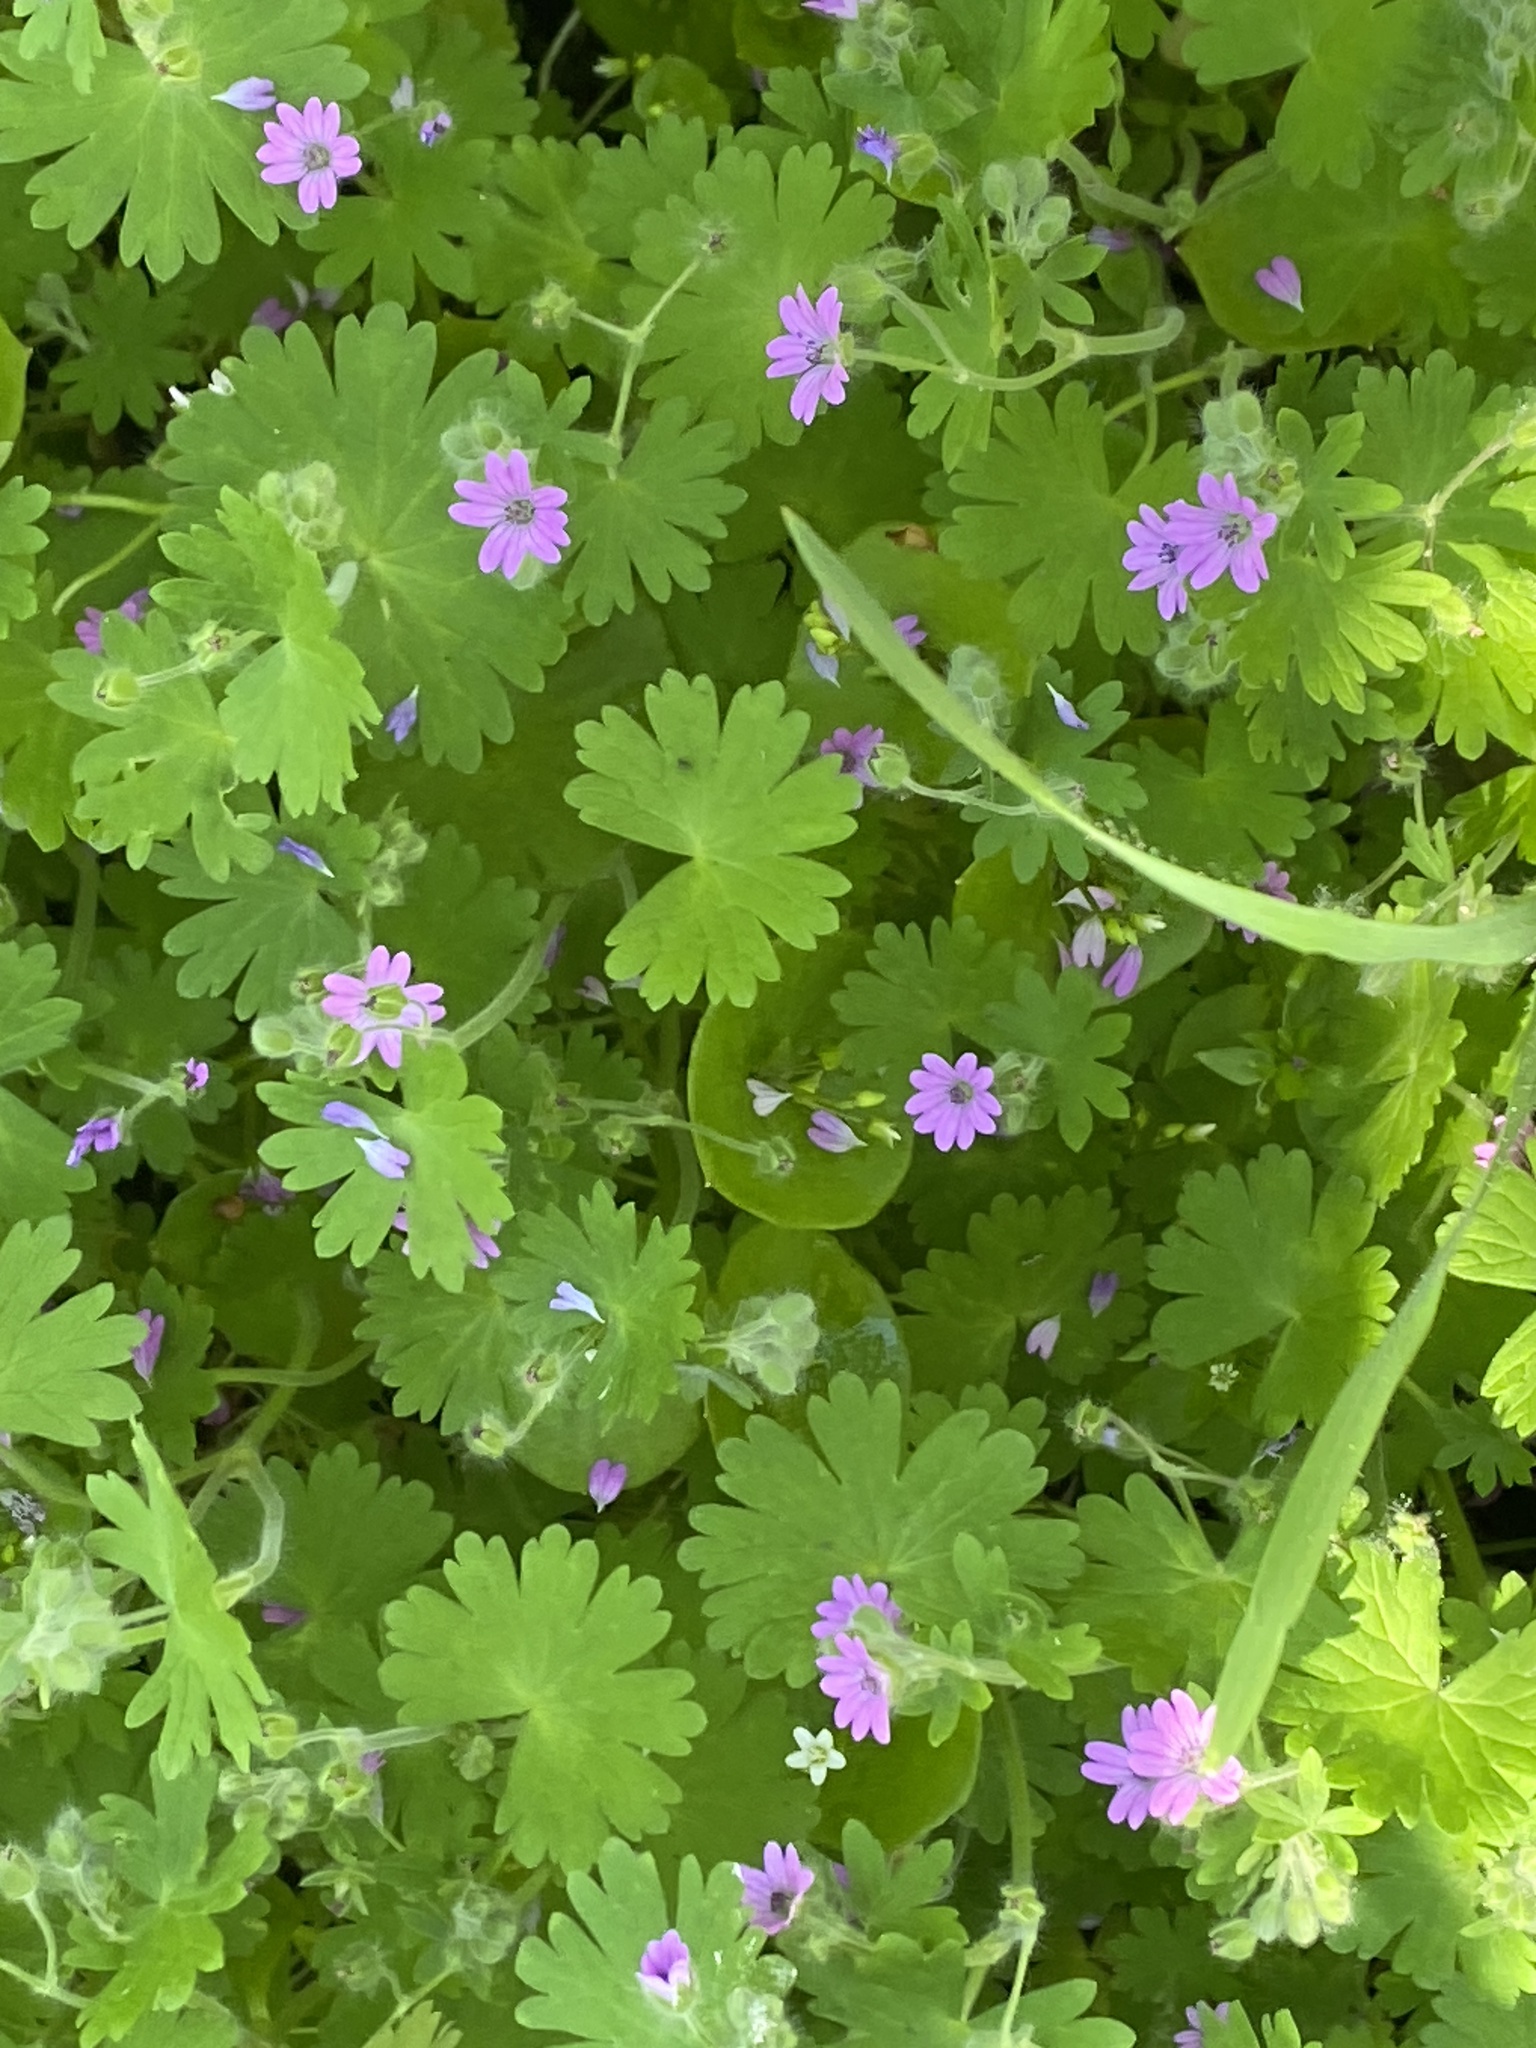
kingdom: Plantae
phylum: Tracheophyta
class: Magnoliopsida
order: Geraniales
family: Geraniaceae
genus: Geranium
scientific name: Geranium molle
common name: Dove's-foot crane's-bill
